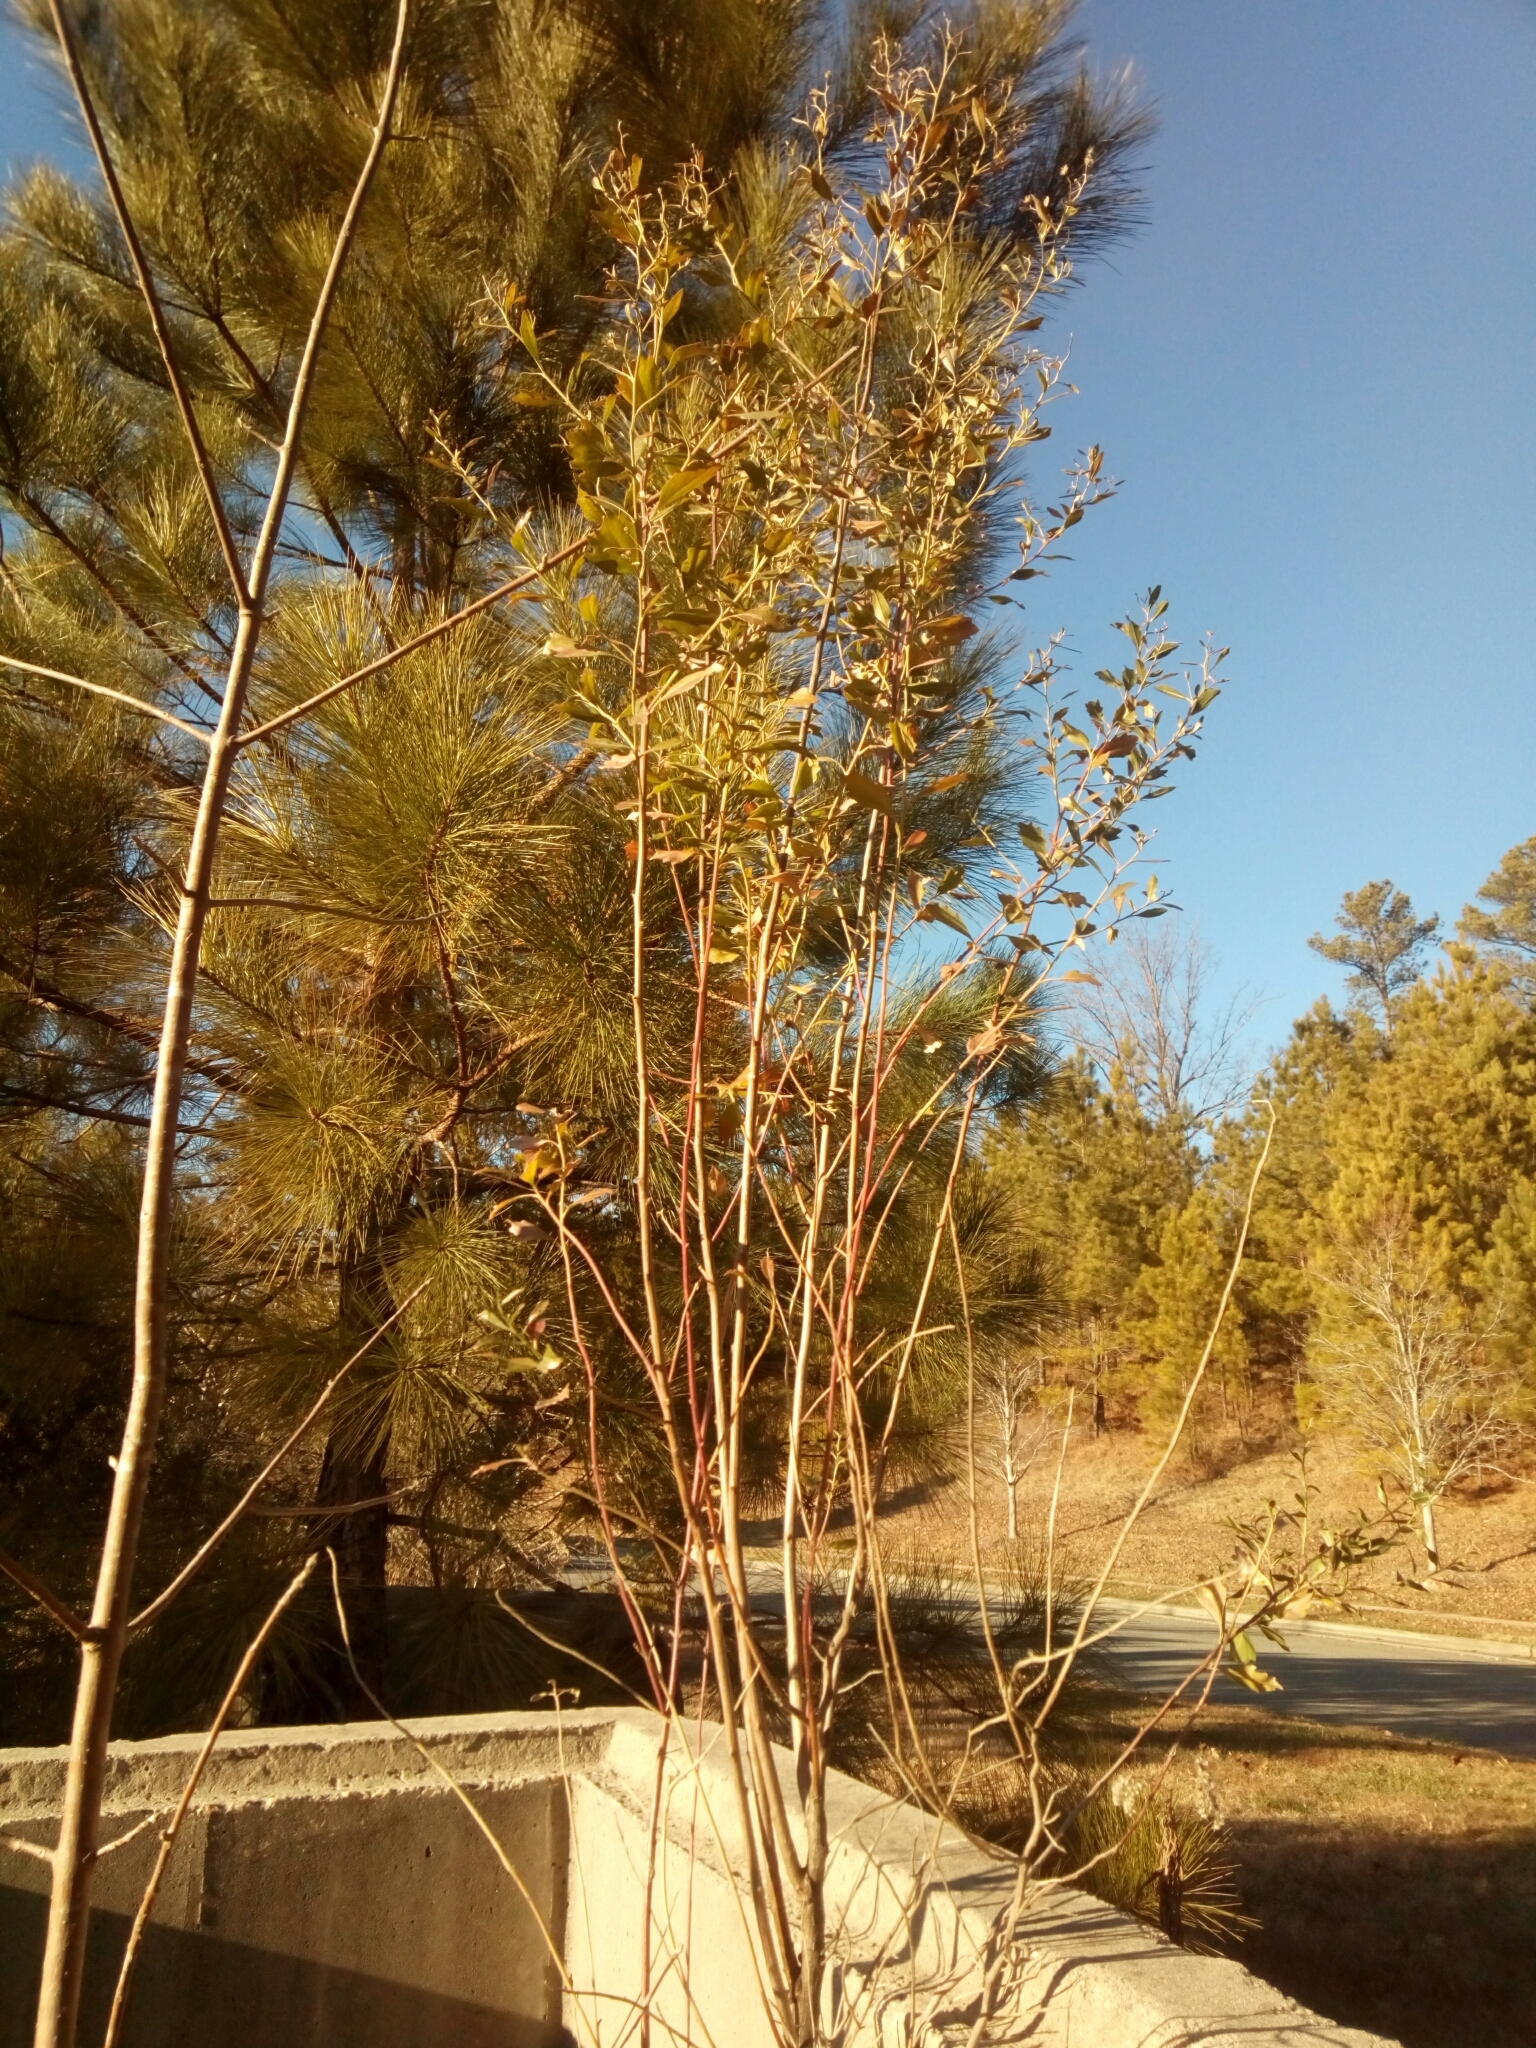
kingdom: Plantae
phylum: Tracheophyta
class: Magnoliopsida
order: Asterales
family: Asteraceae
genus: Baccharis
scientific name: Baccharis halimifolia
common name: Eastern baccharis
